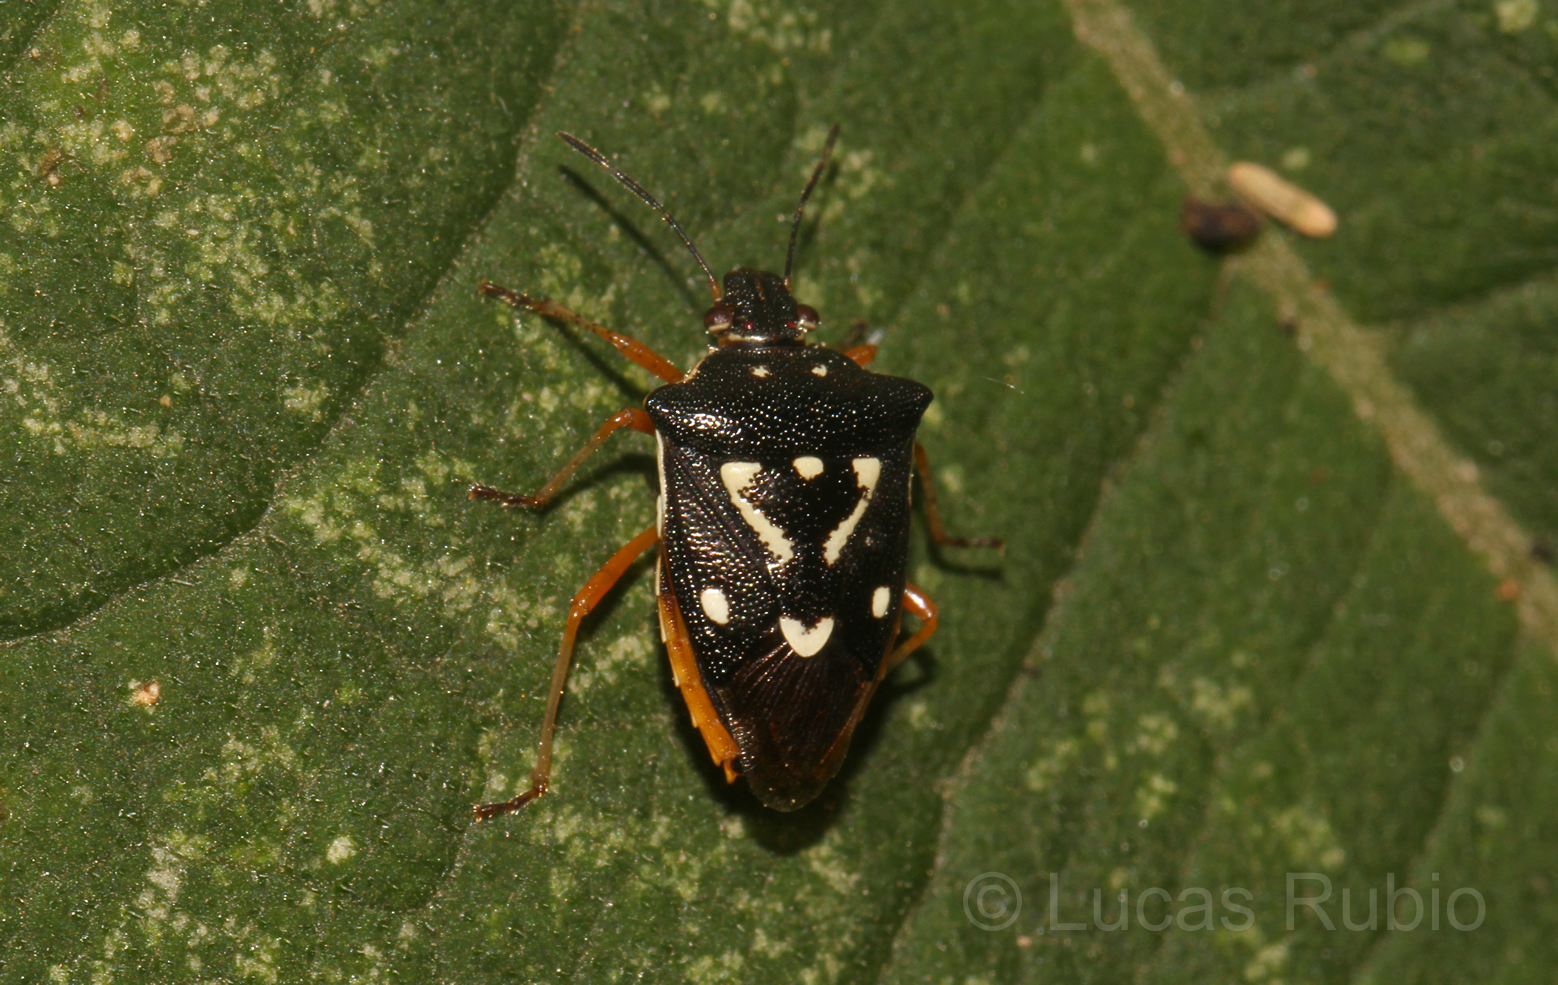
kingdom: Animalia
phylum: Arthropoda
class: Insecta
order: Hemiptera
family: Pentatomidae
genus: Mormidea
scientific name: Mormidea v-luteum
